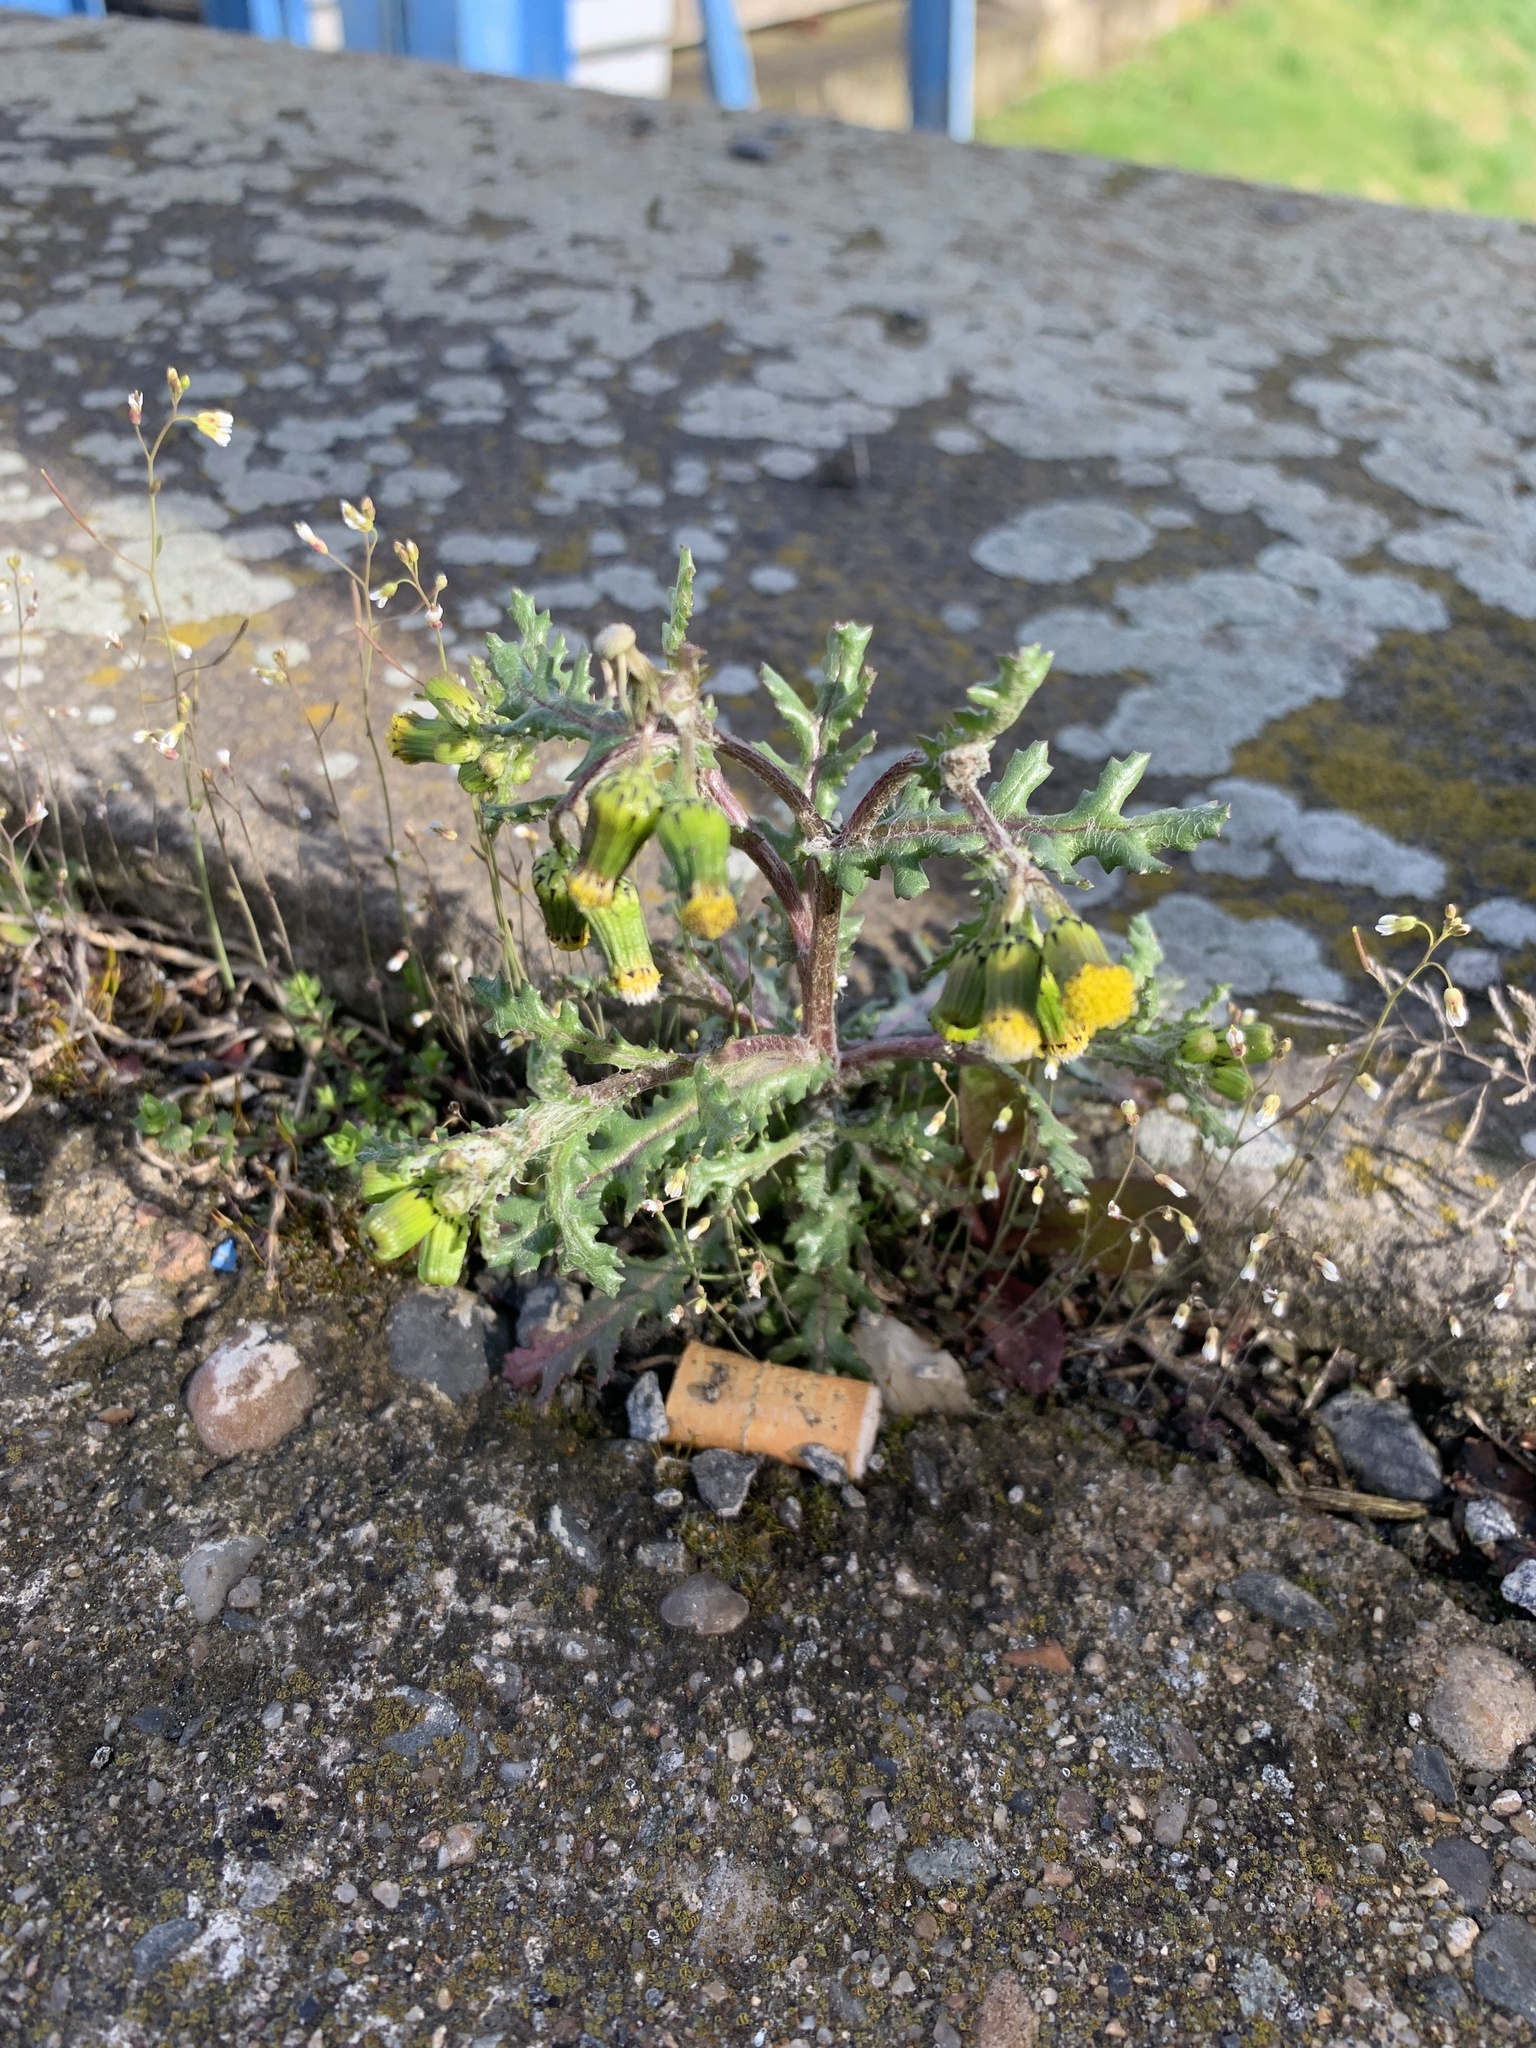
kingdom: Plantae
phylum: Tracheophyta
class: Magnoliopsida
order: Asterales
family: Asteraceae
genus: Senecio
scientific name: Senecio vulgaris
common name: Old-man-in-the-spring
